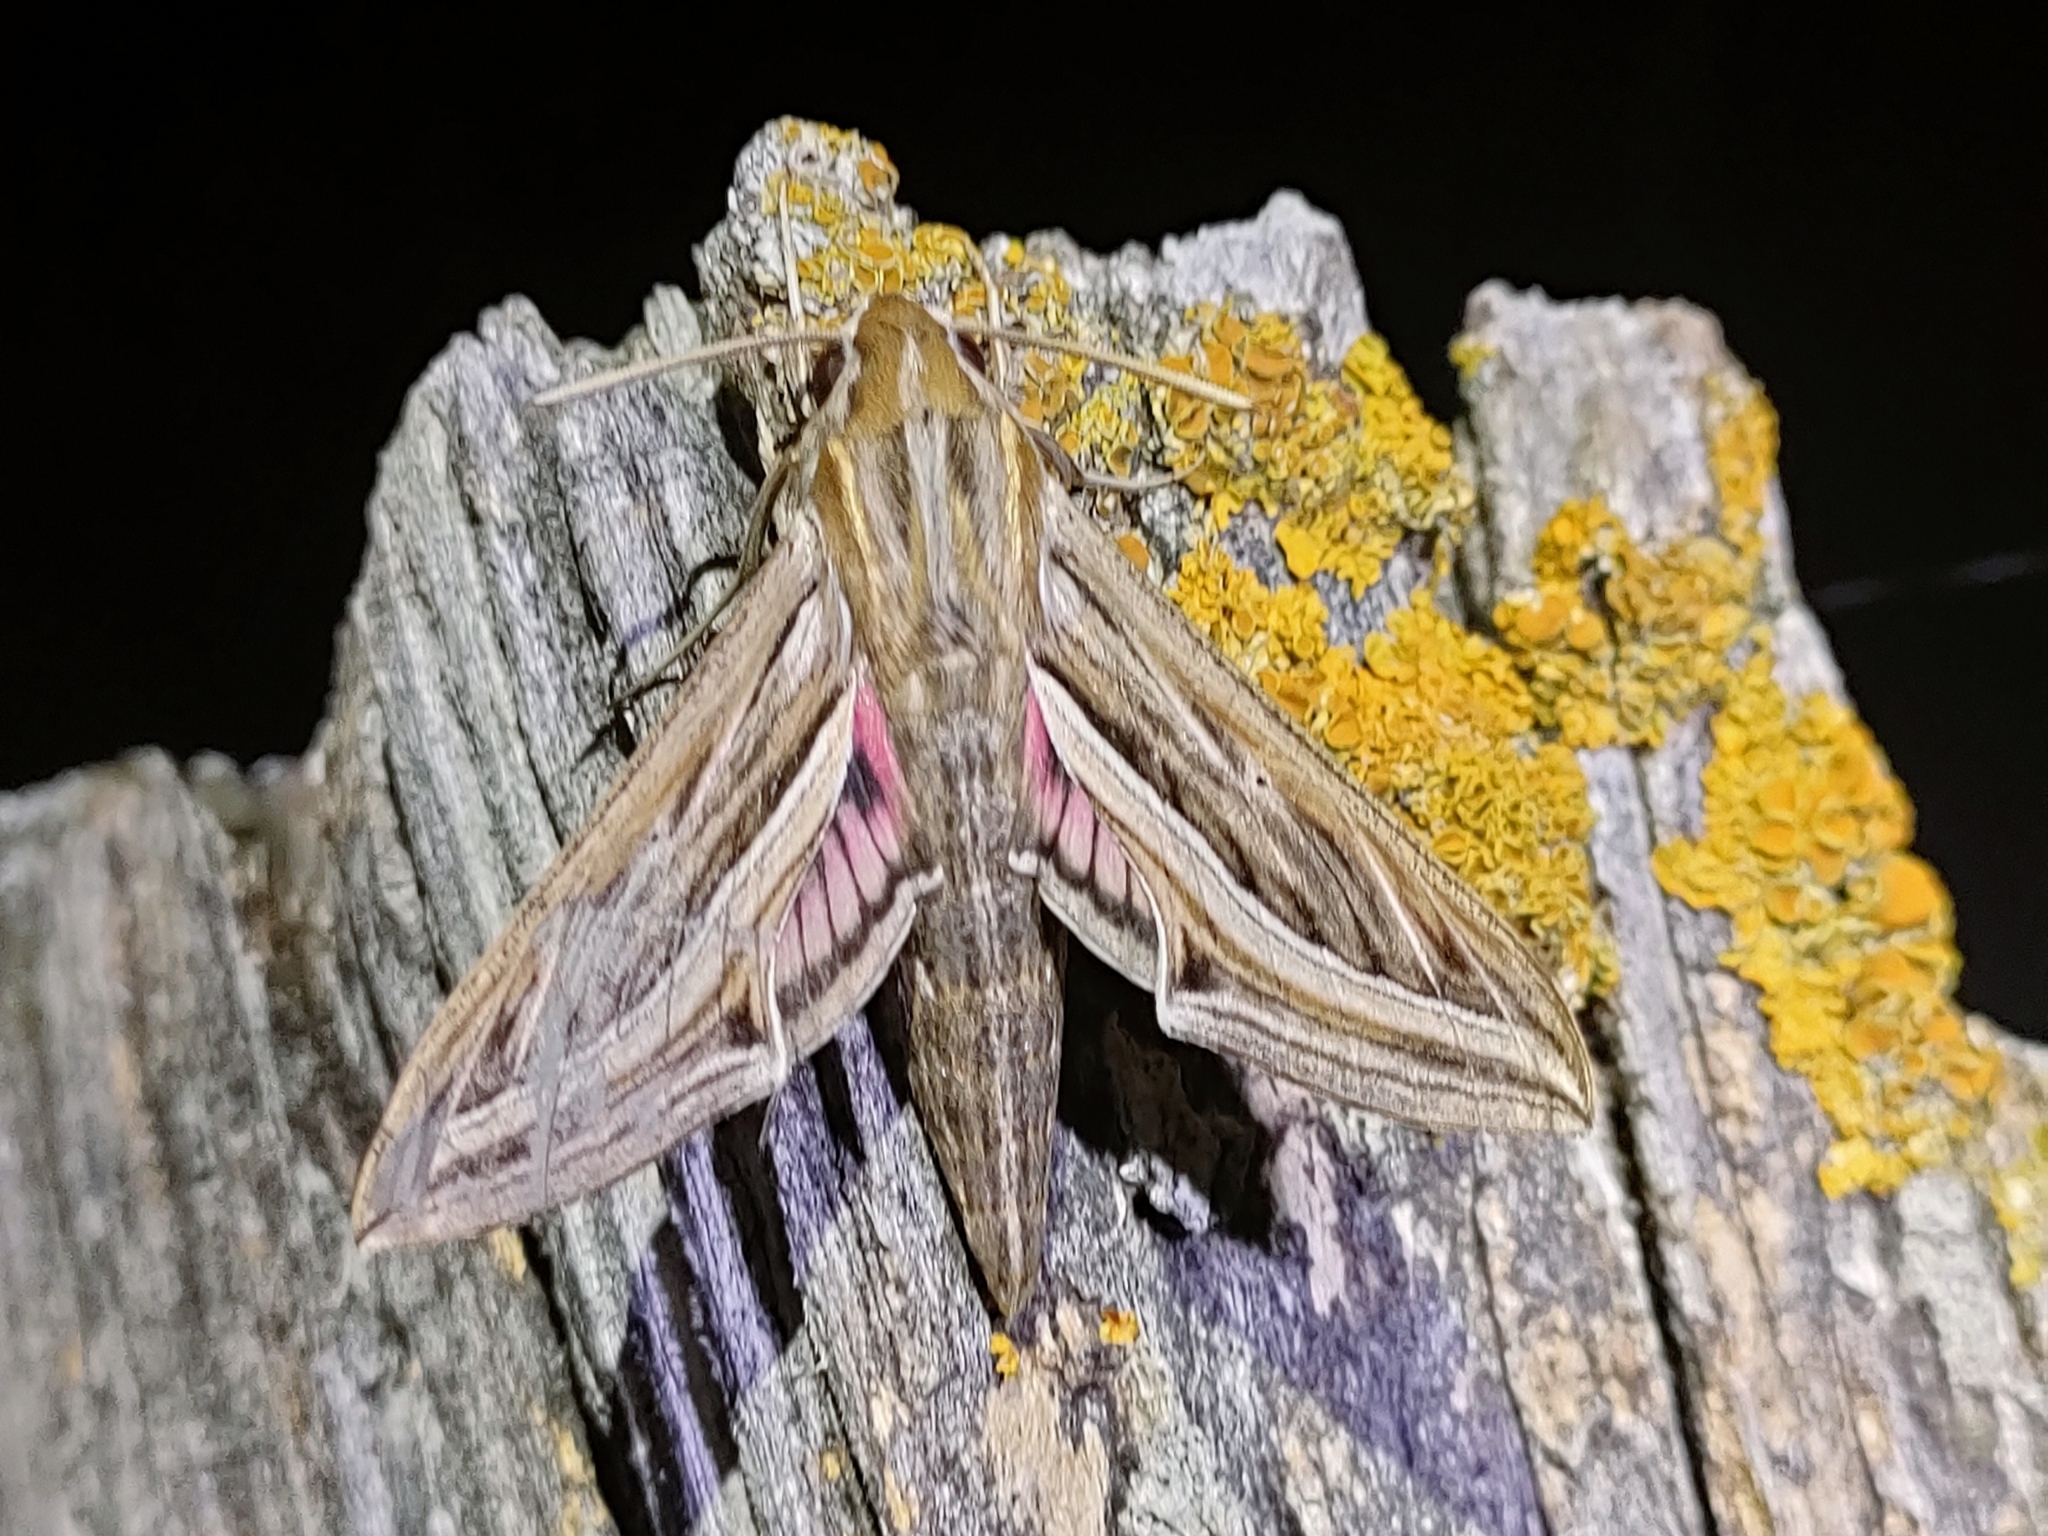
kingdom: Animalia
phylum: Arthropoda
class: Insecta
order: Lepidoptera
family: Sphingidae
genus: Hippotion
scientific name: Hippotion celerio
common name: Silver-striped hawk-moth
